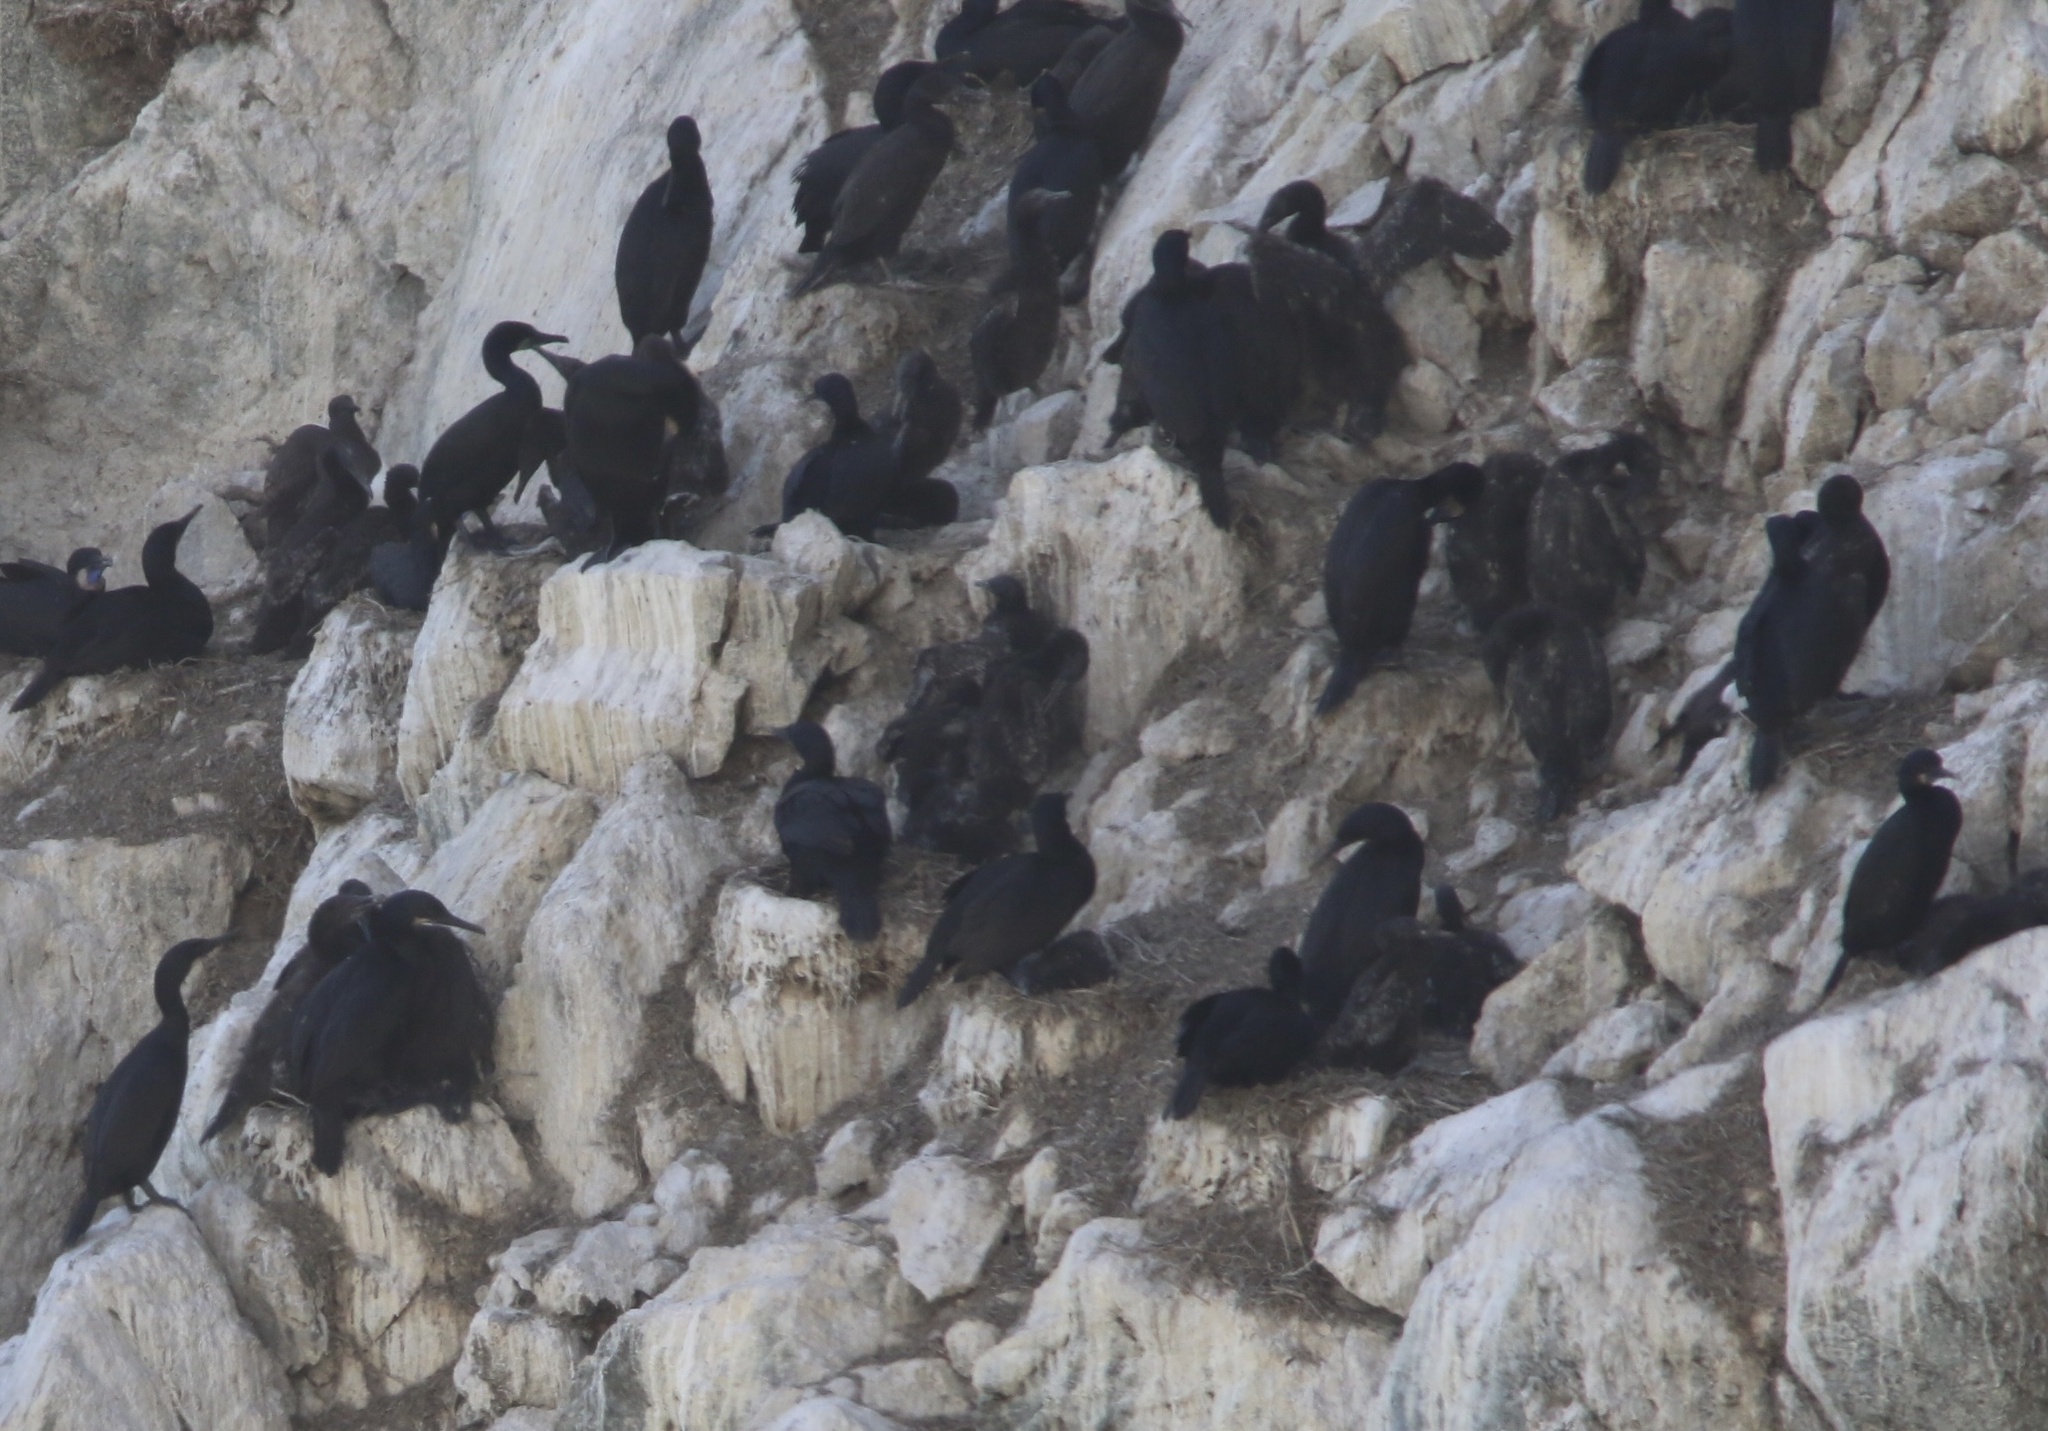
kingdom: Animalia
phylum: Chordata
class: Aves
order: Suliformes
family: Phalacrocoracidae
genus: Urile
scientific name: Urile penicillatus
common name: Brandt's cormorant
